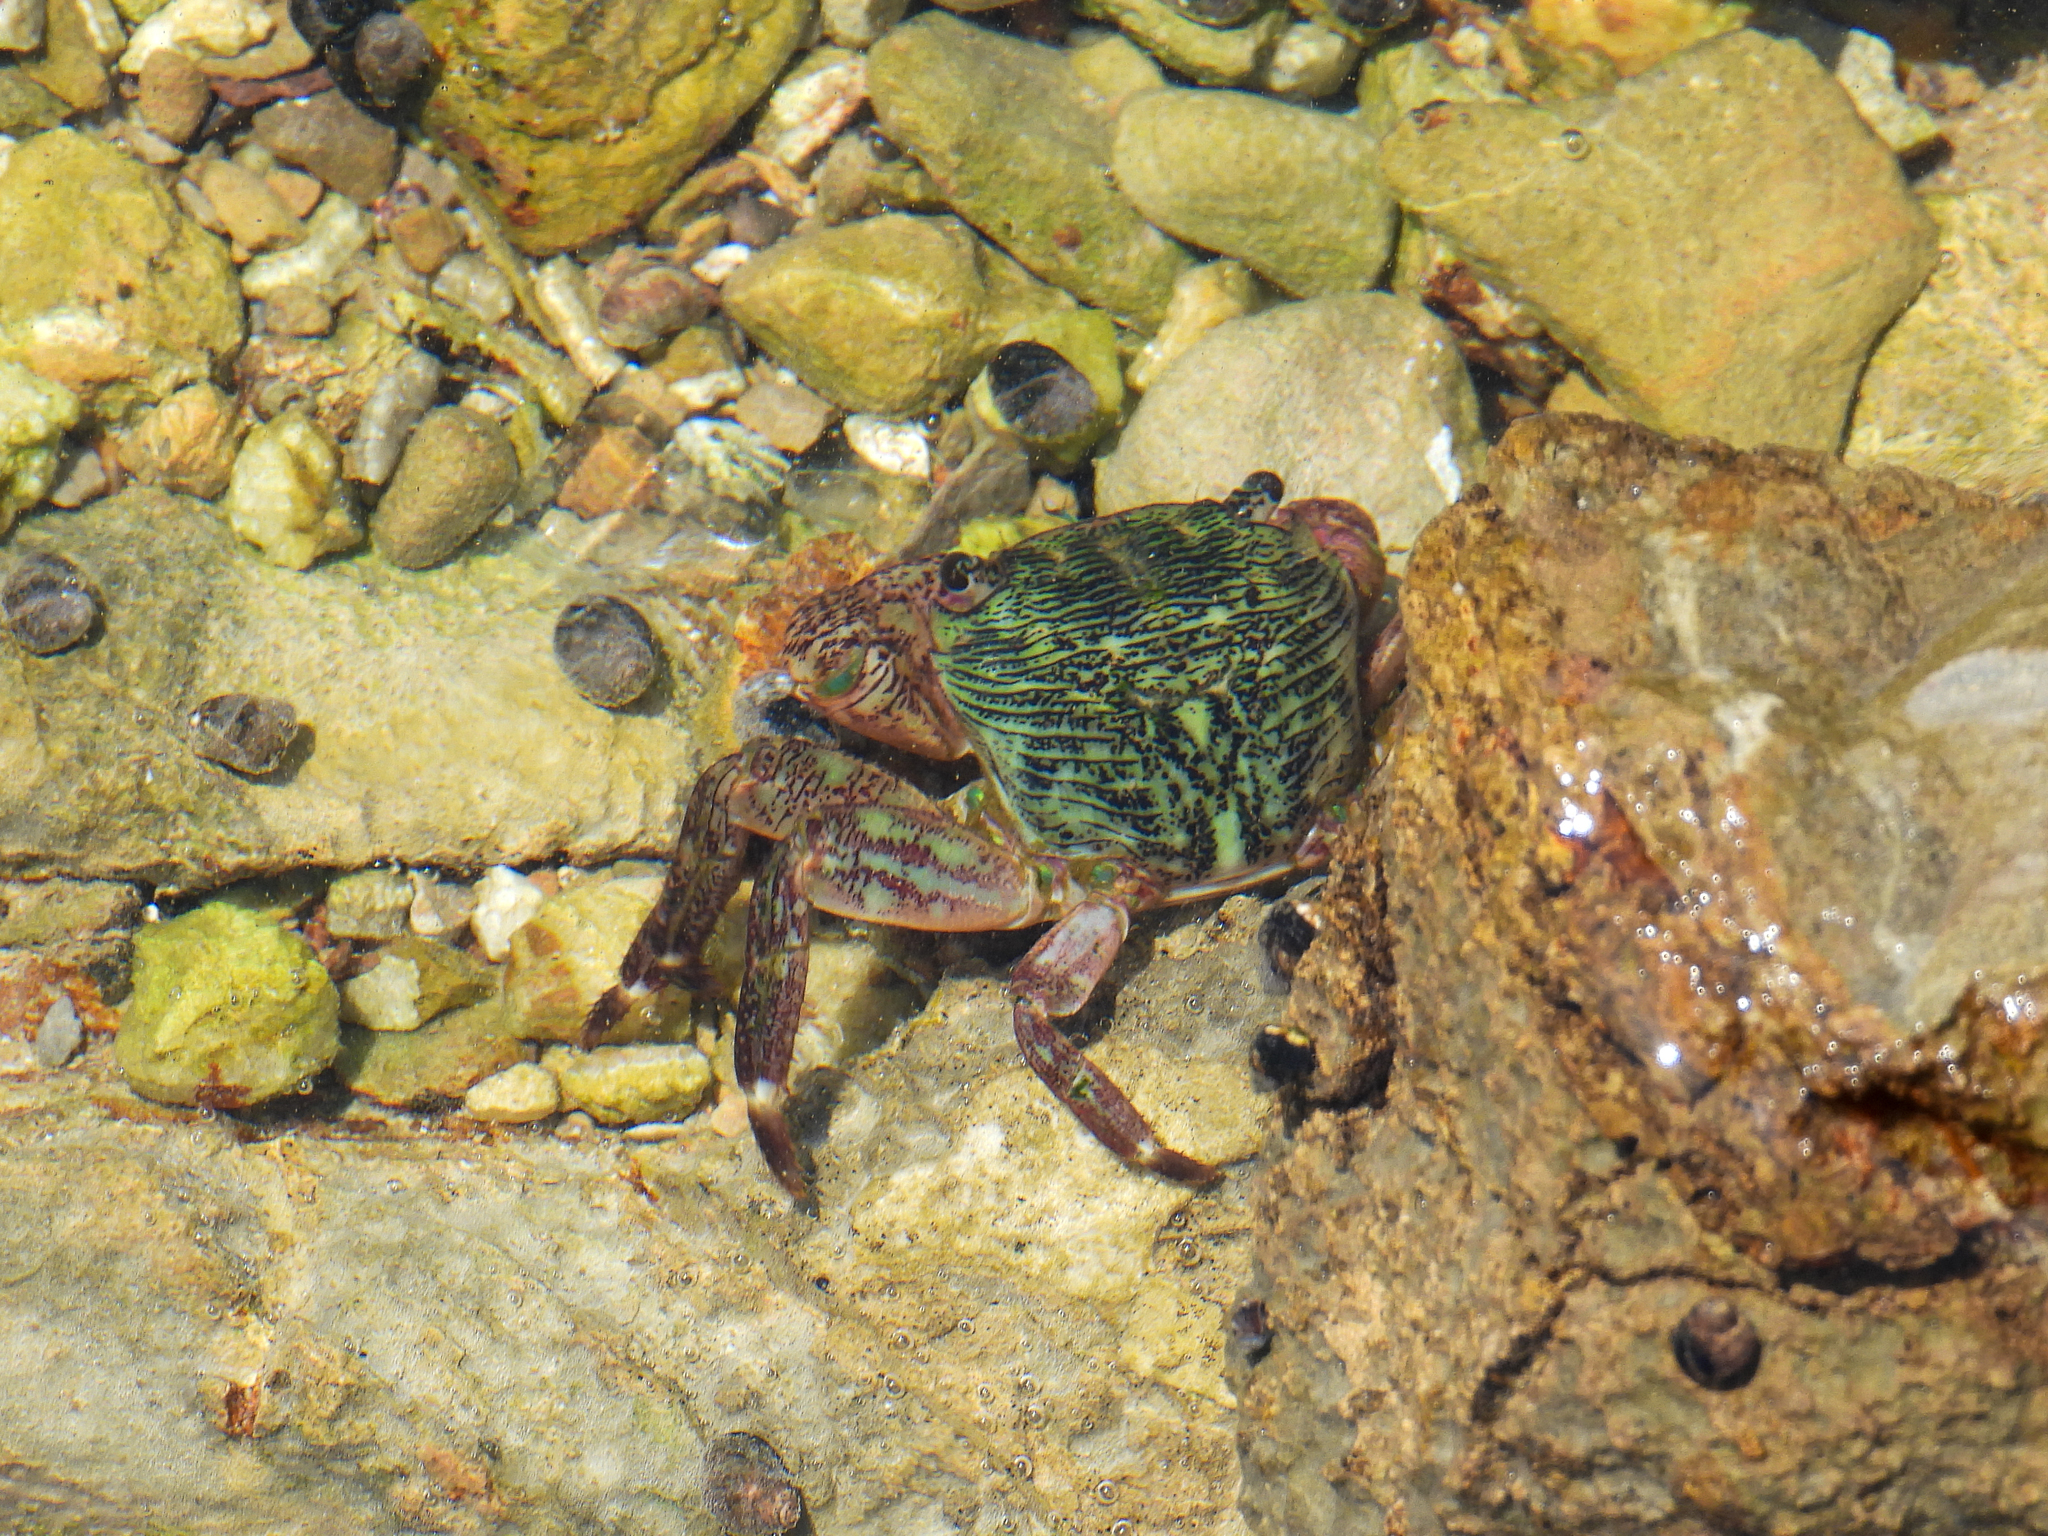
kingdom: Animalia
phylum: Arthropoda
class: Malacostraca
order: Decapoda
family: Grapsidae
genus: Pachygrapsus
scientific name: Pachygrapsus crassipes
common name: Striped shore crab
